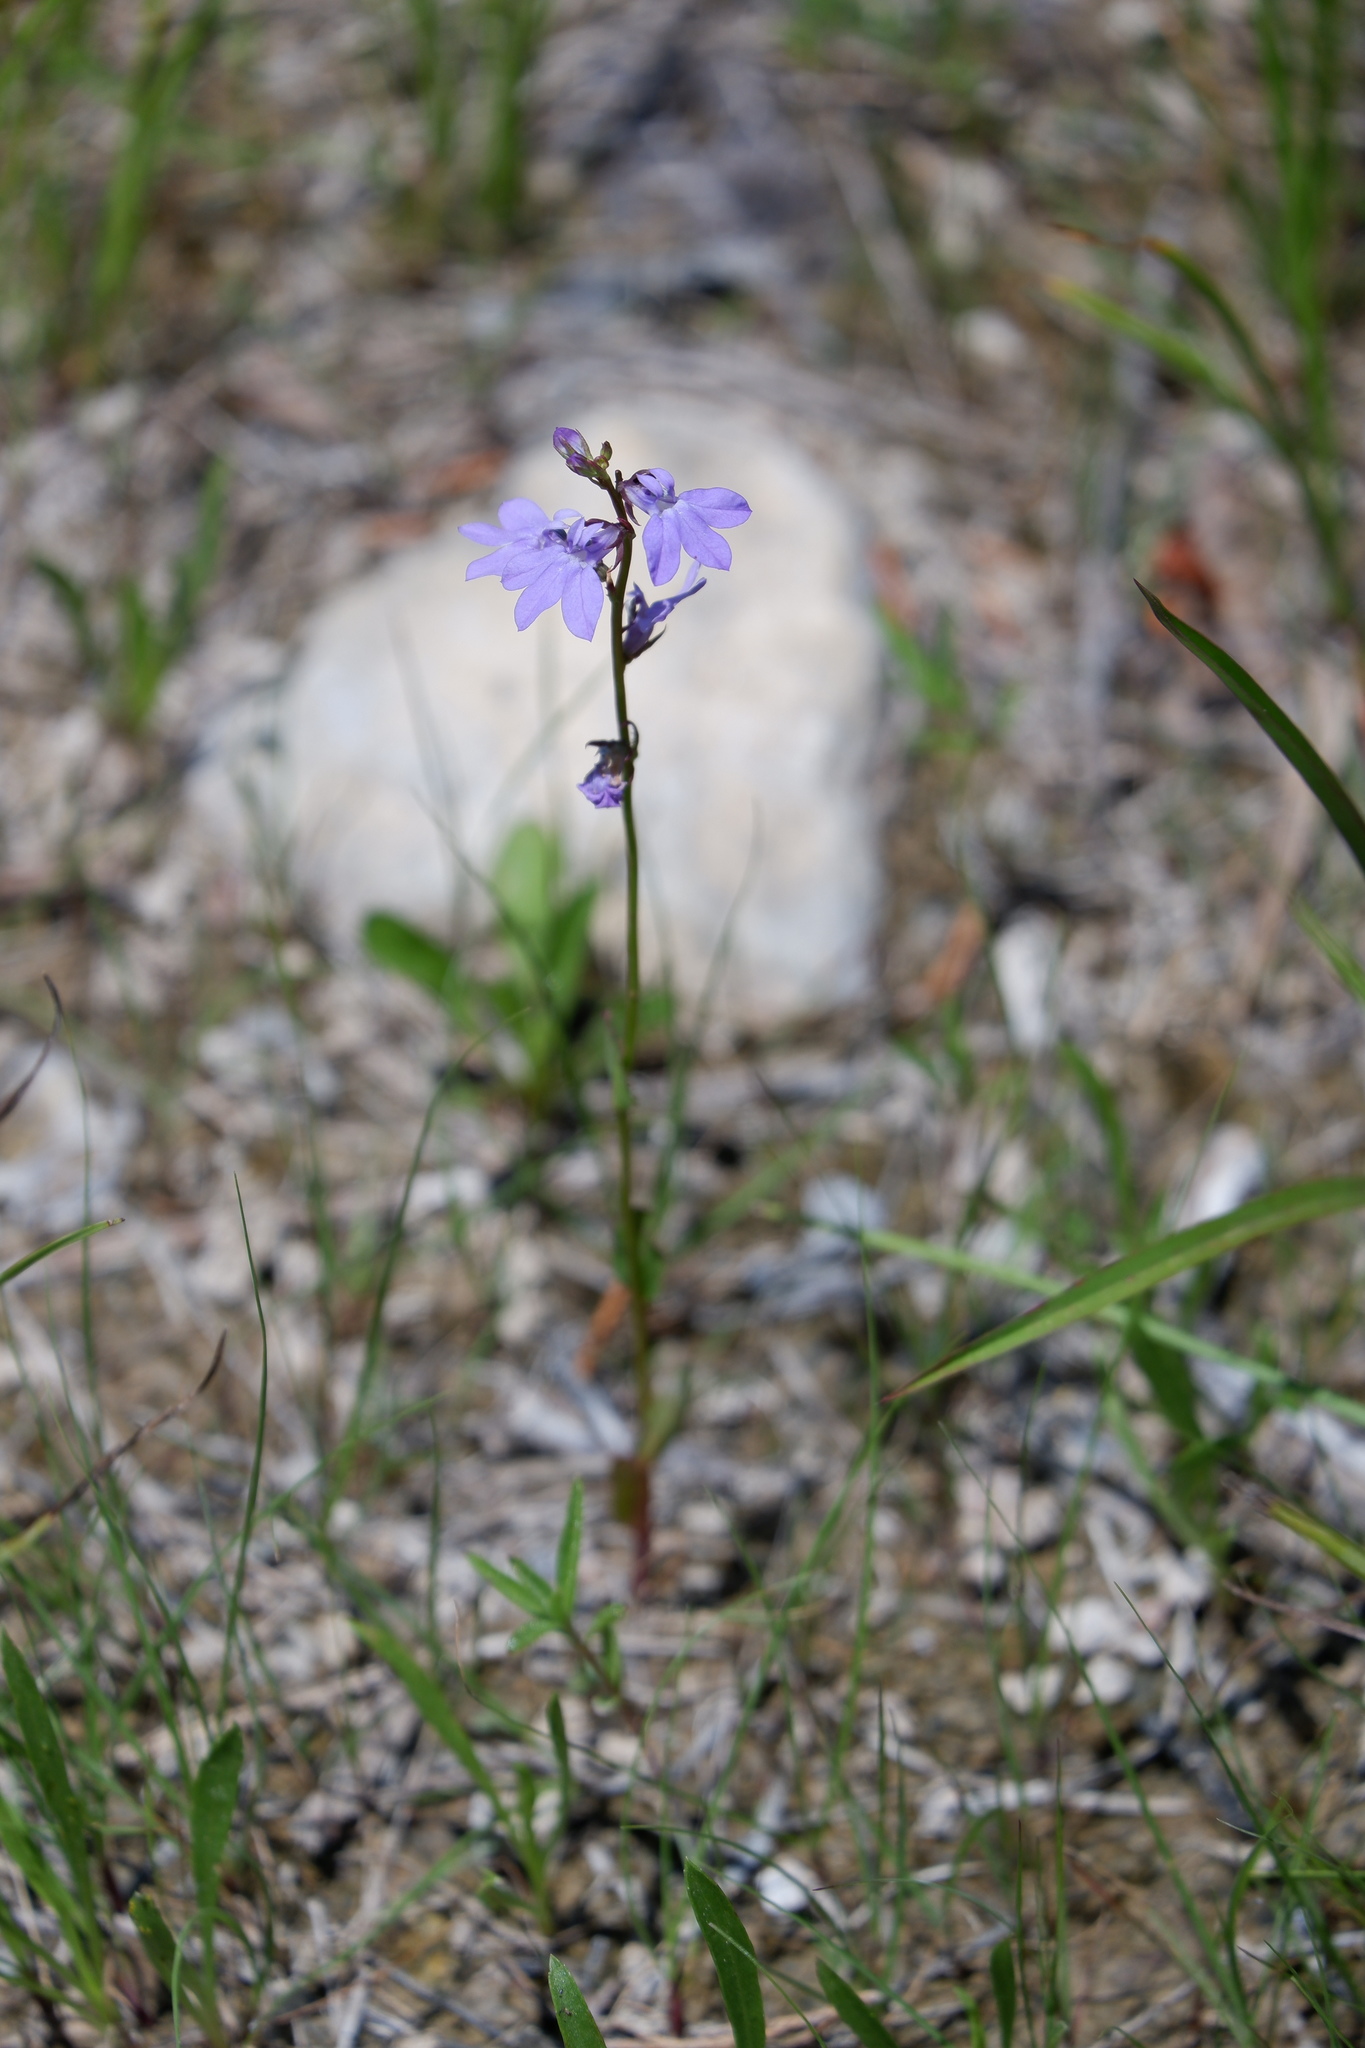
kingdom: Plantae
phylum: Tracheophyta
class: Magnoliopsida
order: Asterales
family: Campanulaceae
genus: Lobelia
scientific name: Lobelia gattingeri
